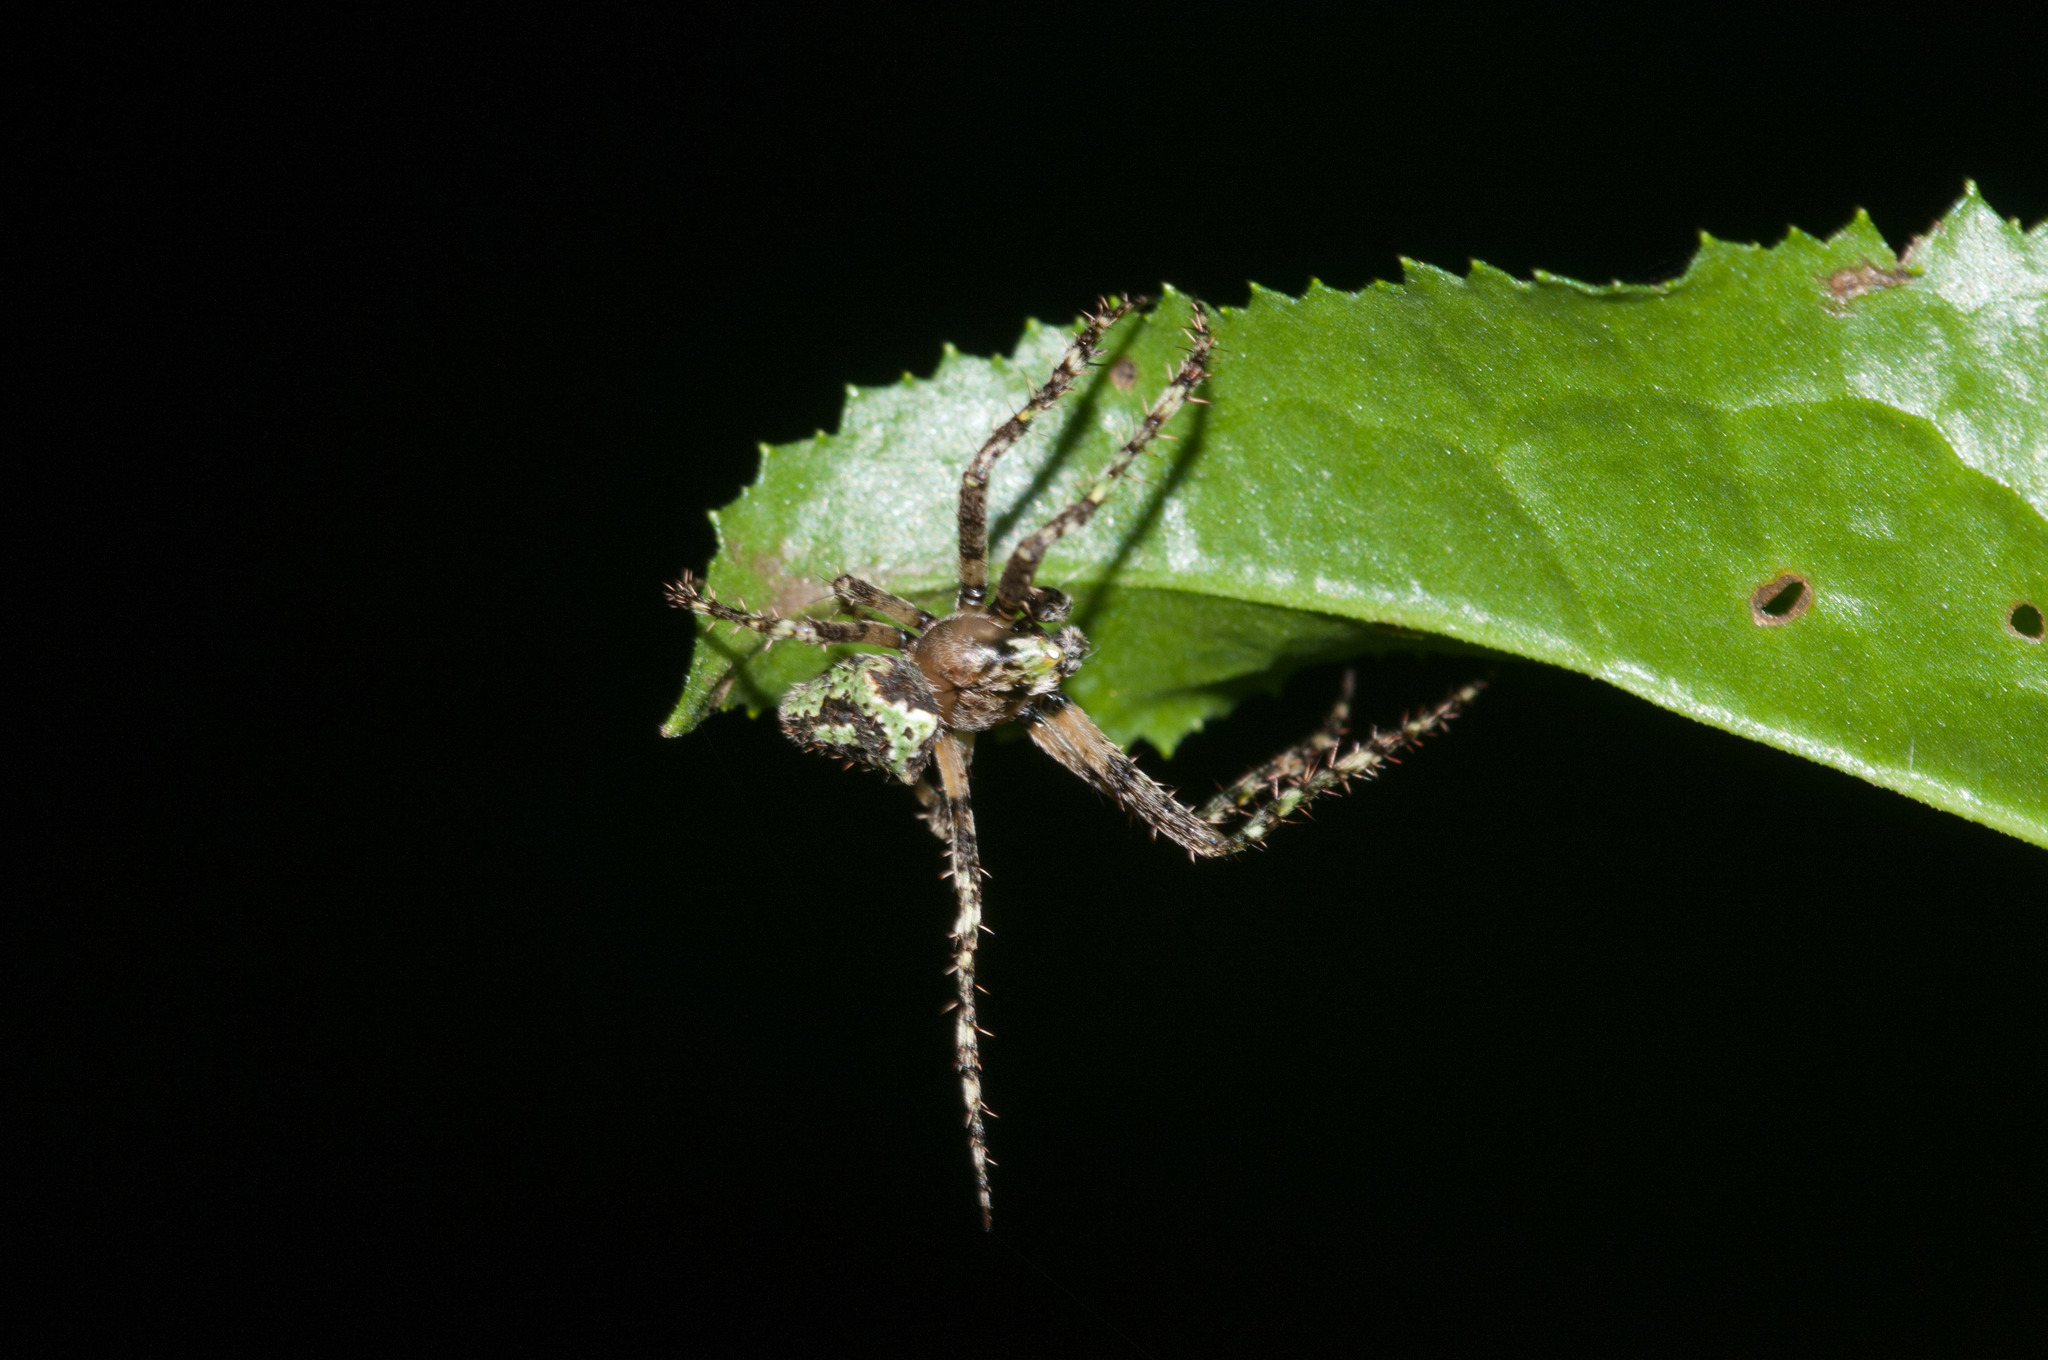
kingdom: Animalia
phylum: Arthropoda
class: Arachnida
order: Araneae
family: Araneidae
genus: Novaranea
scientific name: Novaranea courti
